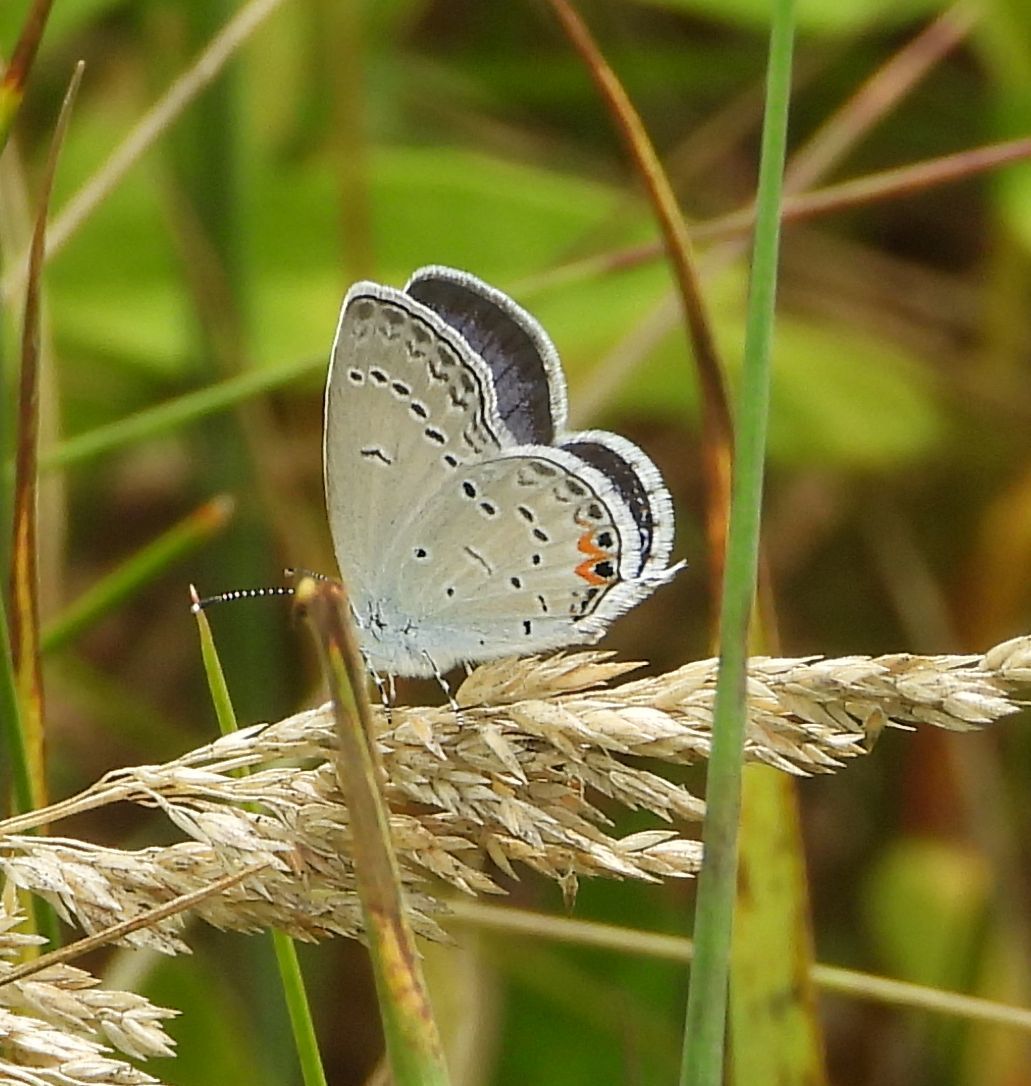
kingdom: Animalia
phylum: Arthropoda
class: Insecta
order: Lepidoptera
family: Lycaenidae
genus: Elkalyce
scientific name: Elkalyce comyntas
